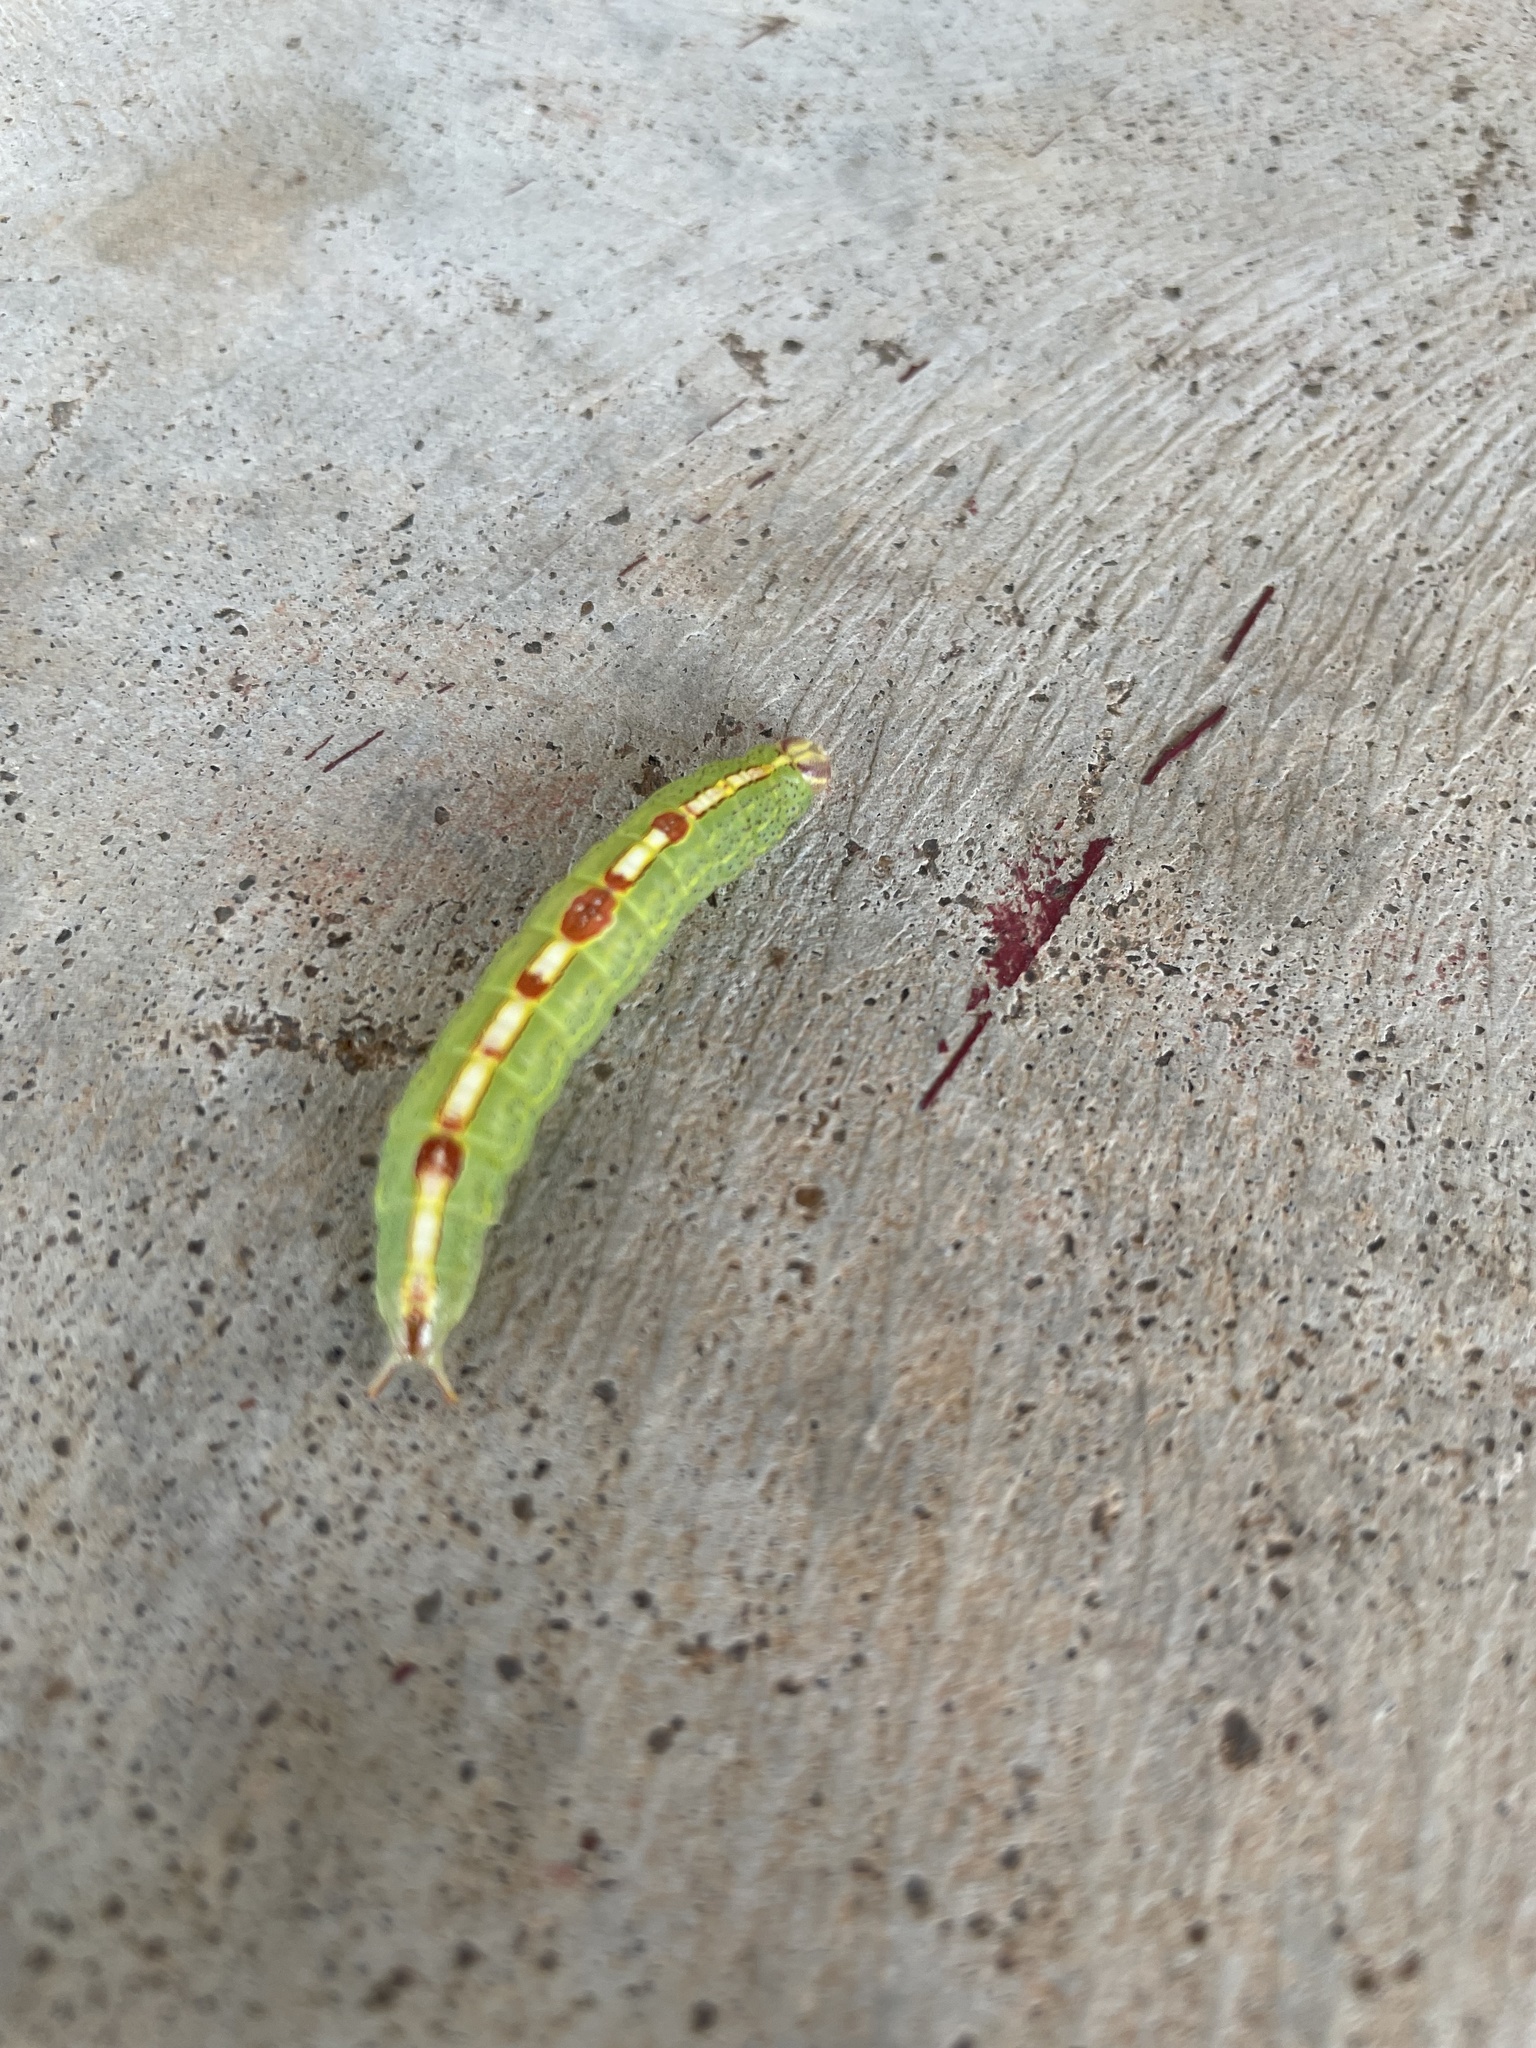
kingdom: Animalia
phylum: Arthropoda
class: Insecta
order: Lepidoptera
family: Notodontidae
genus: Misogada
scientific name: Misogada unicolor
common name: Drab prominent
